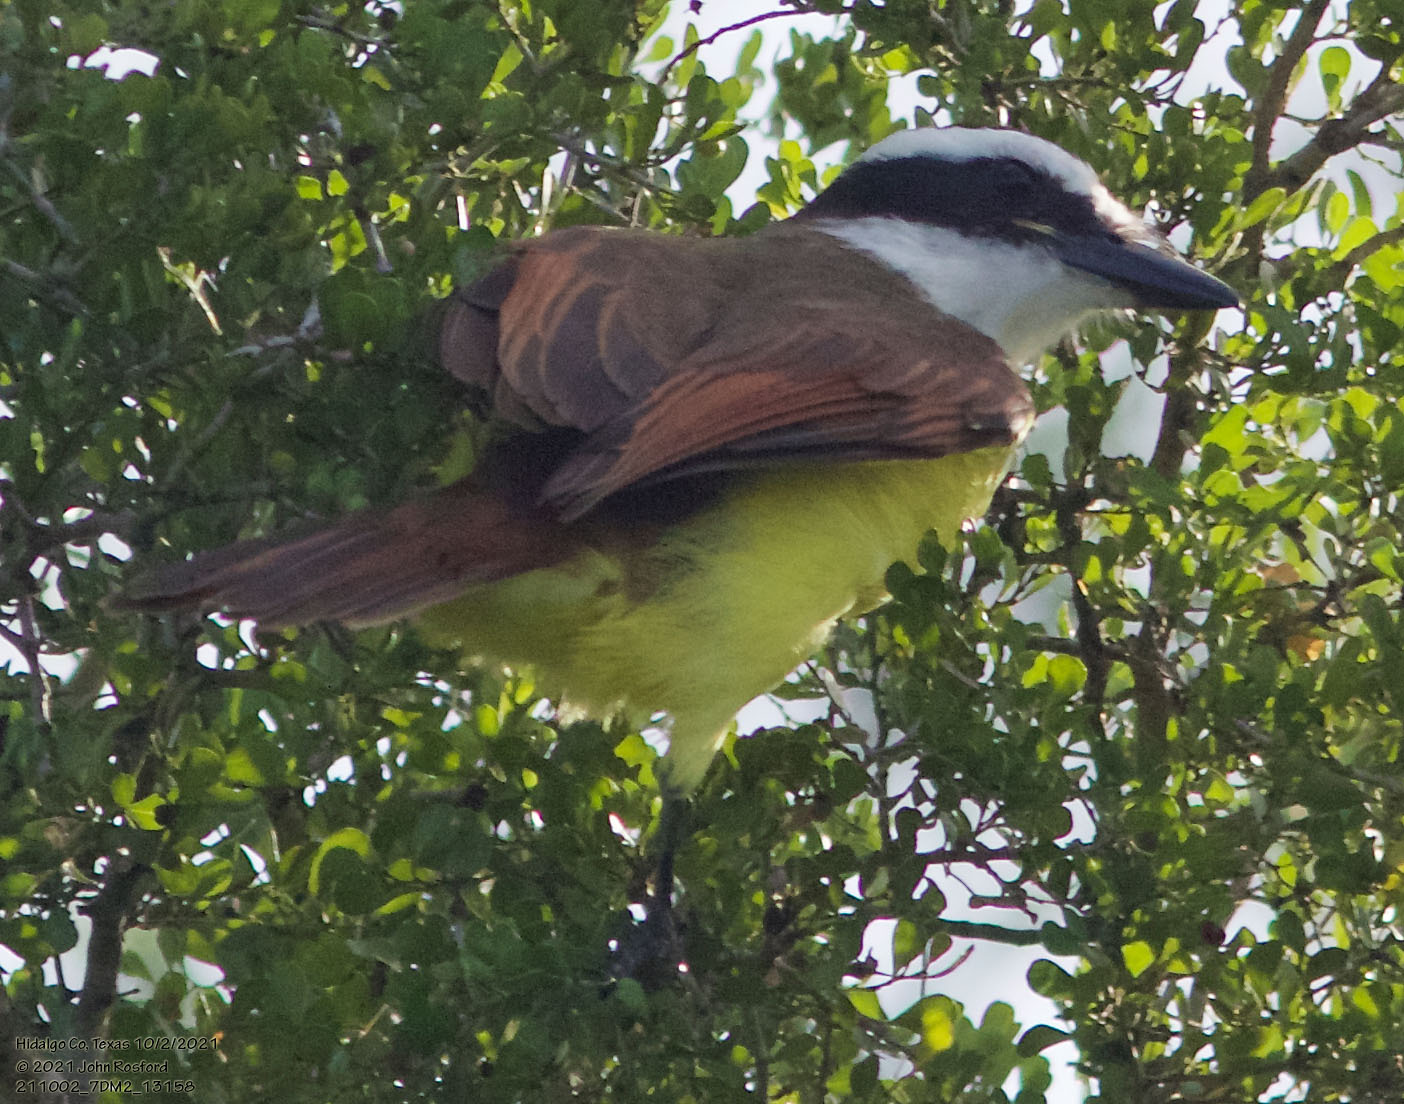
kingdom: Animalia
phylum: Chordata
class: Aves
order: Passeriformes
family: Tyrannidae
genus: Pitangus
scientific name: Pitangus sulphuratus
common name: Great kiskadee
